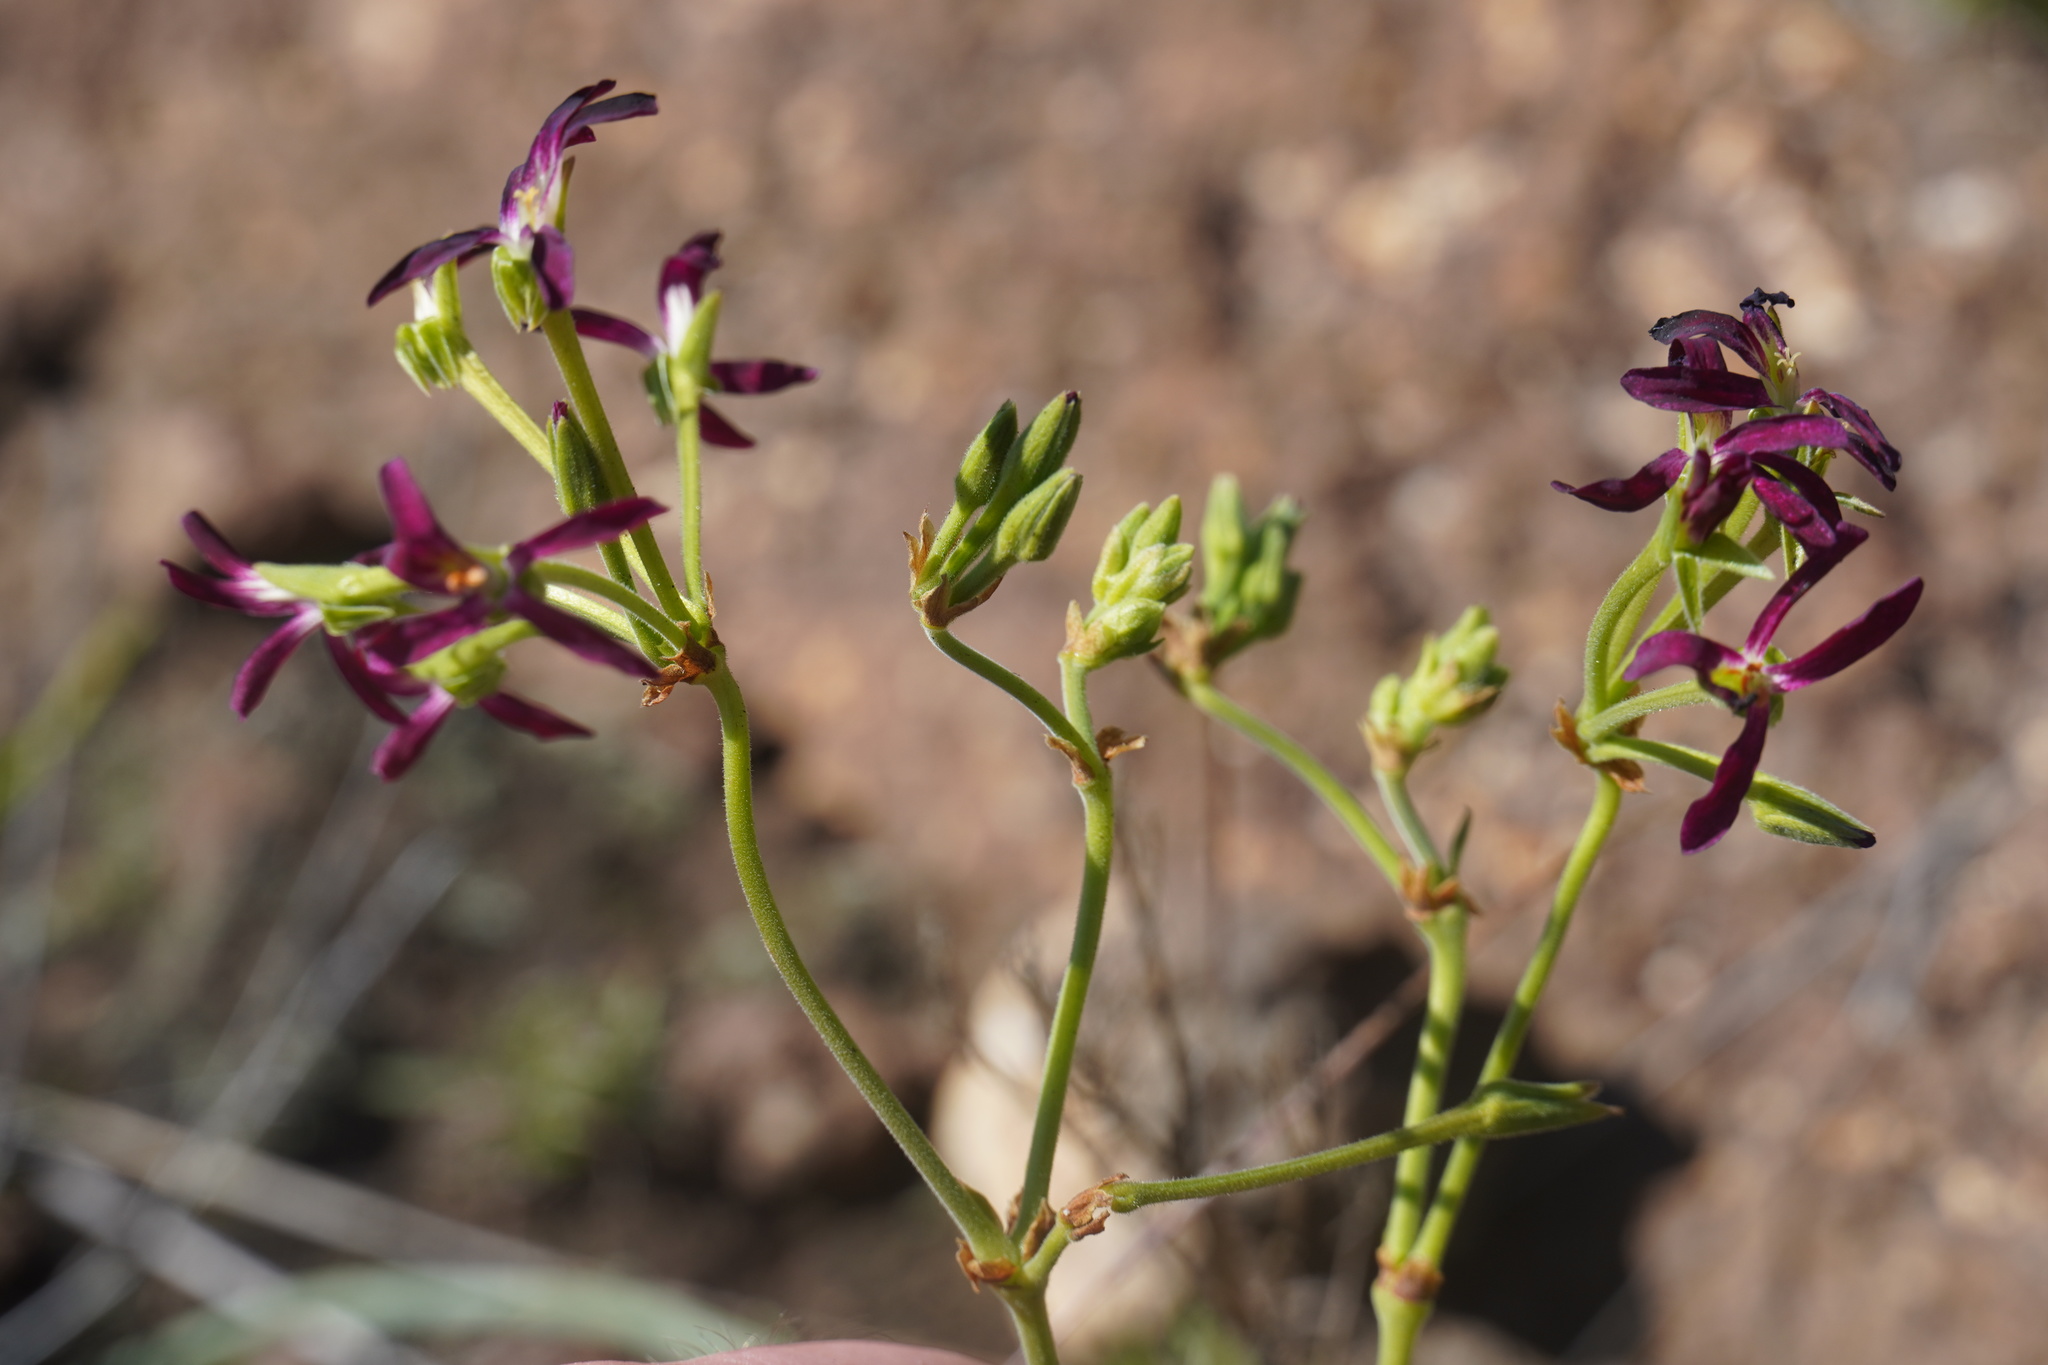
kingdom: Plantae
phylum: Tracheophyta
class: Magnoliopsida
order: Geraniales
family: Geraniaceae
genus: Pelargonium
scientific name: Pelargonium sidoides
